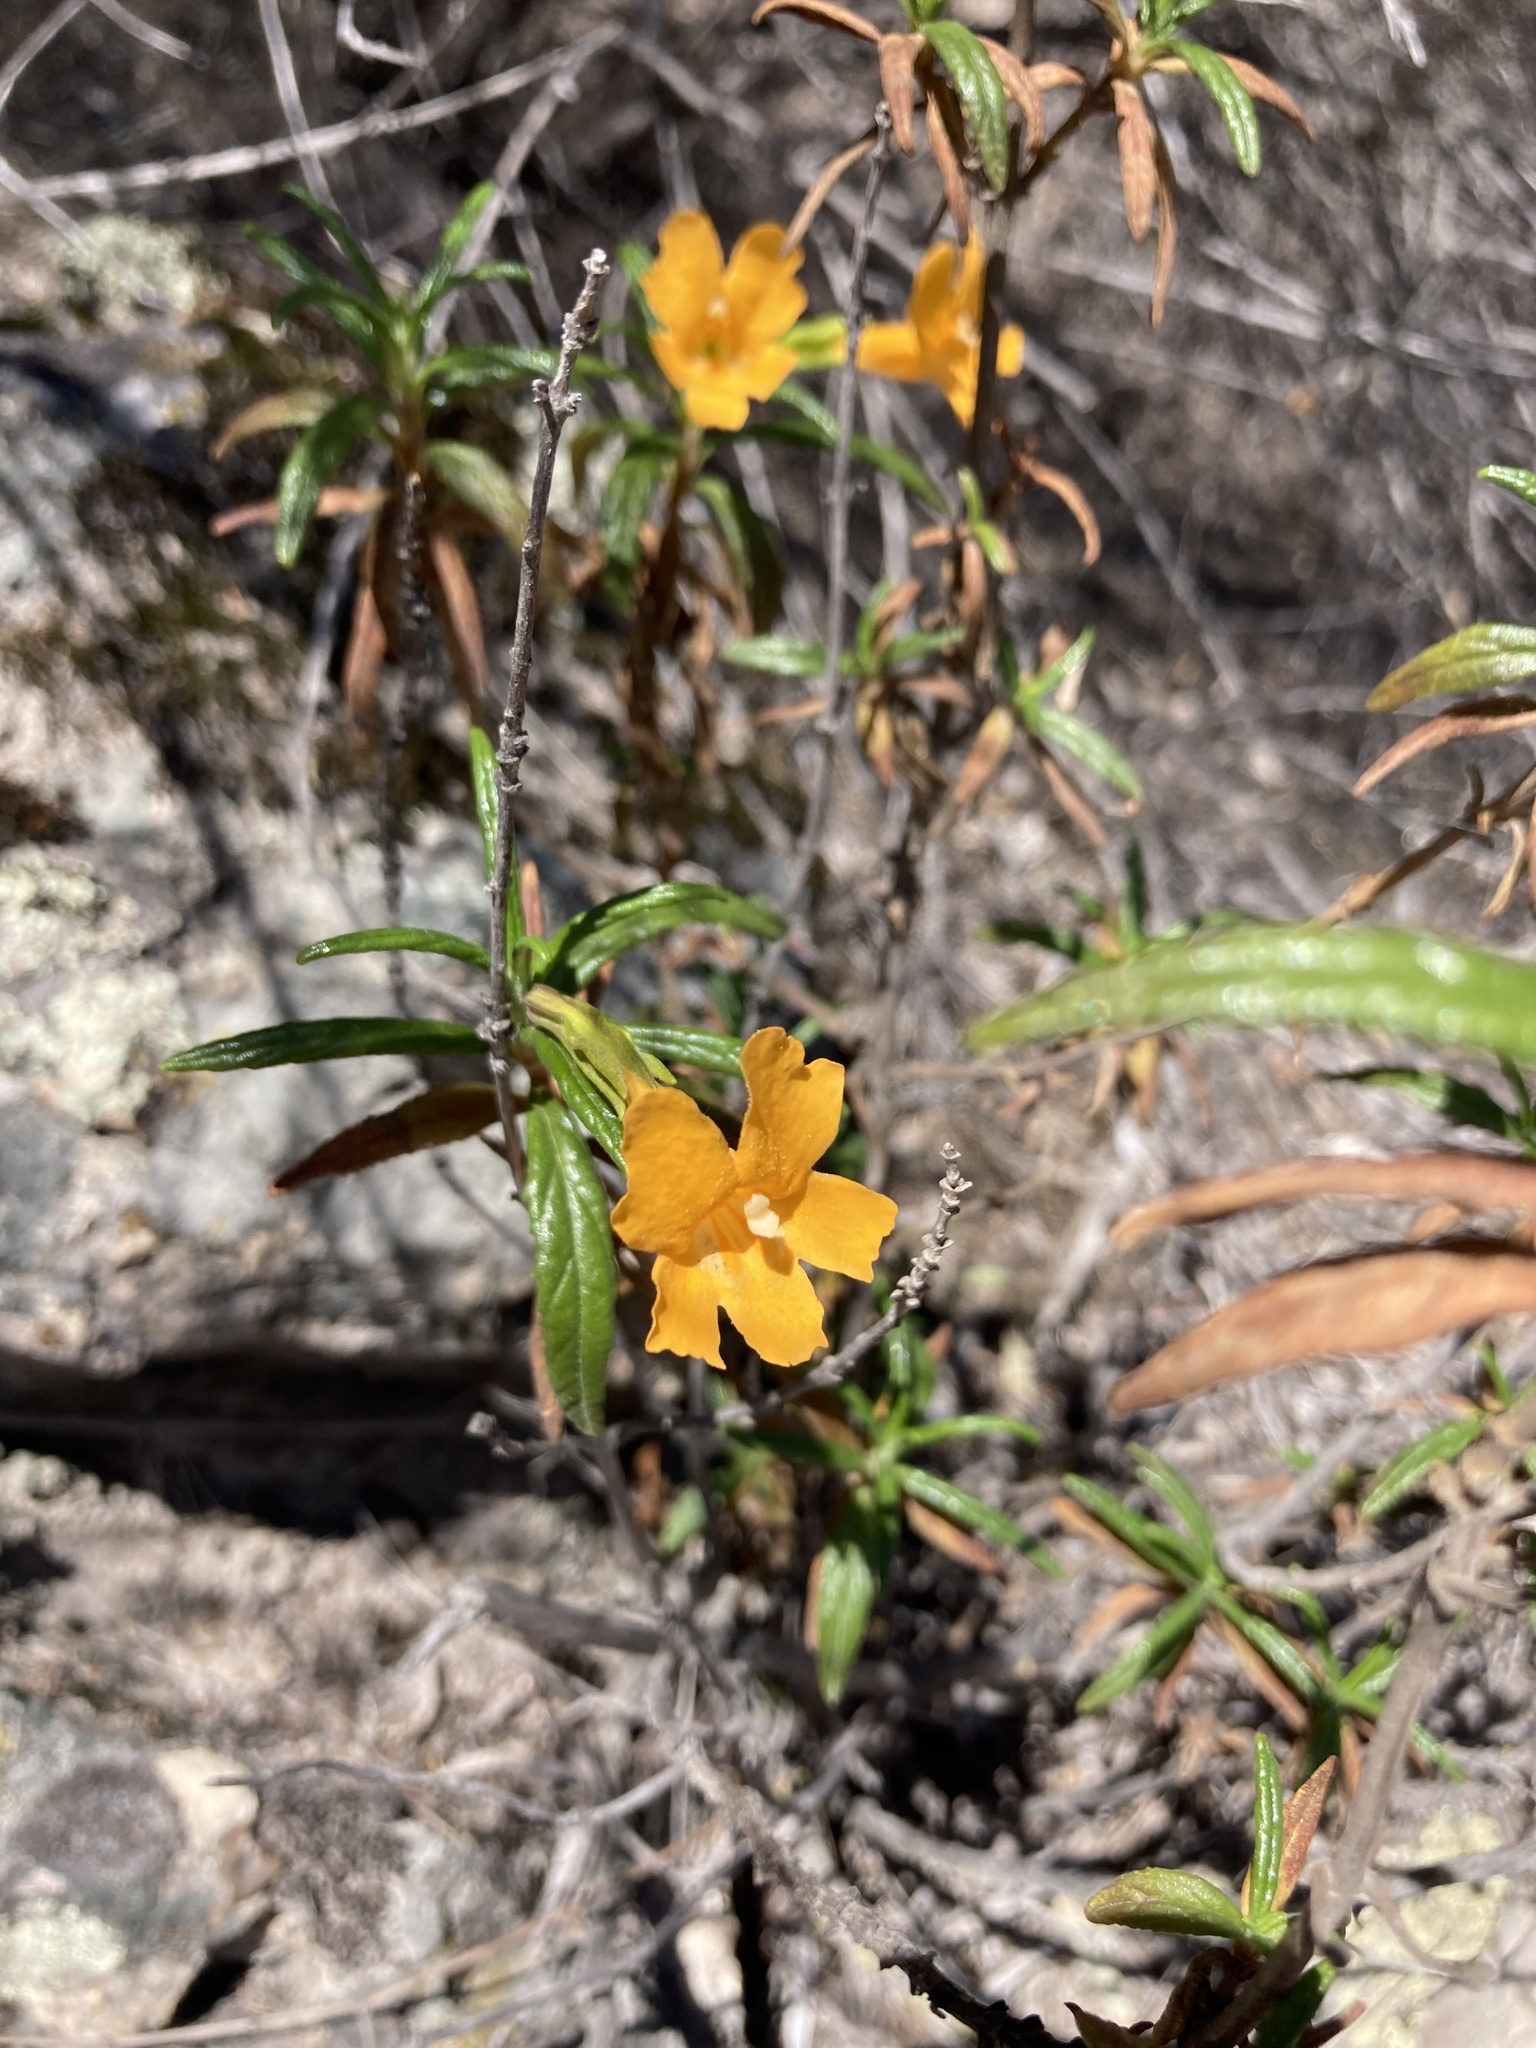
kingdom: Plantae
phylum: Tracheophyta
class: Magnoliopsida
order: Lamiales
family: Phrymaceae
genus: Diplacus
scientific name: Diplacus aurantiacus
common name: Bush monkey-flower
